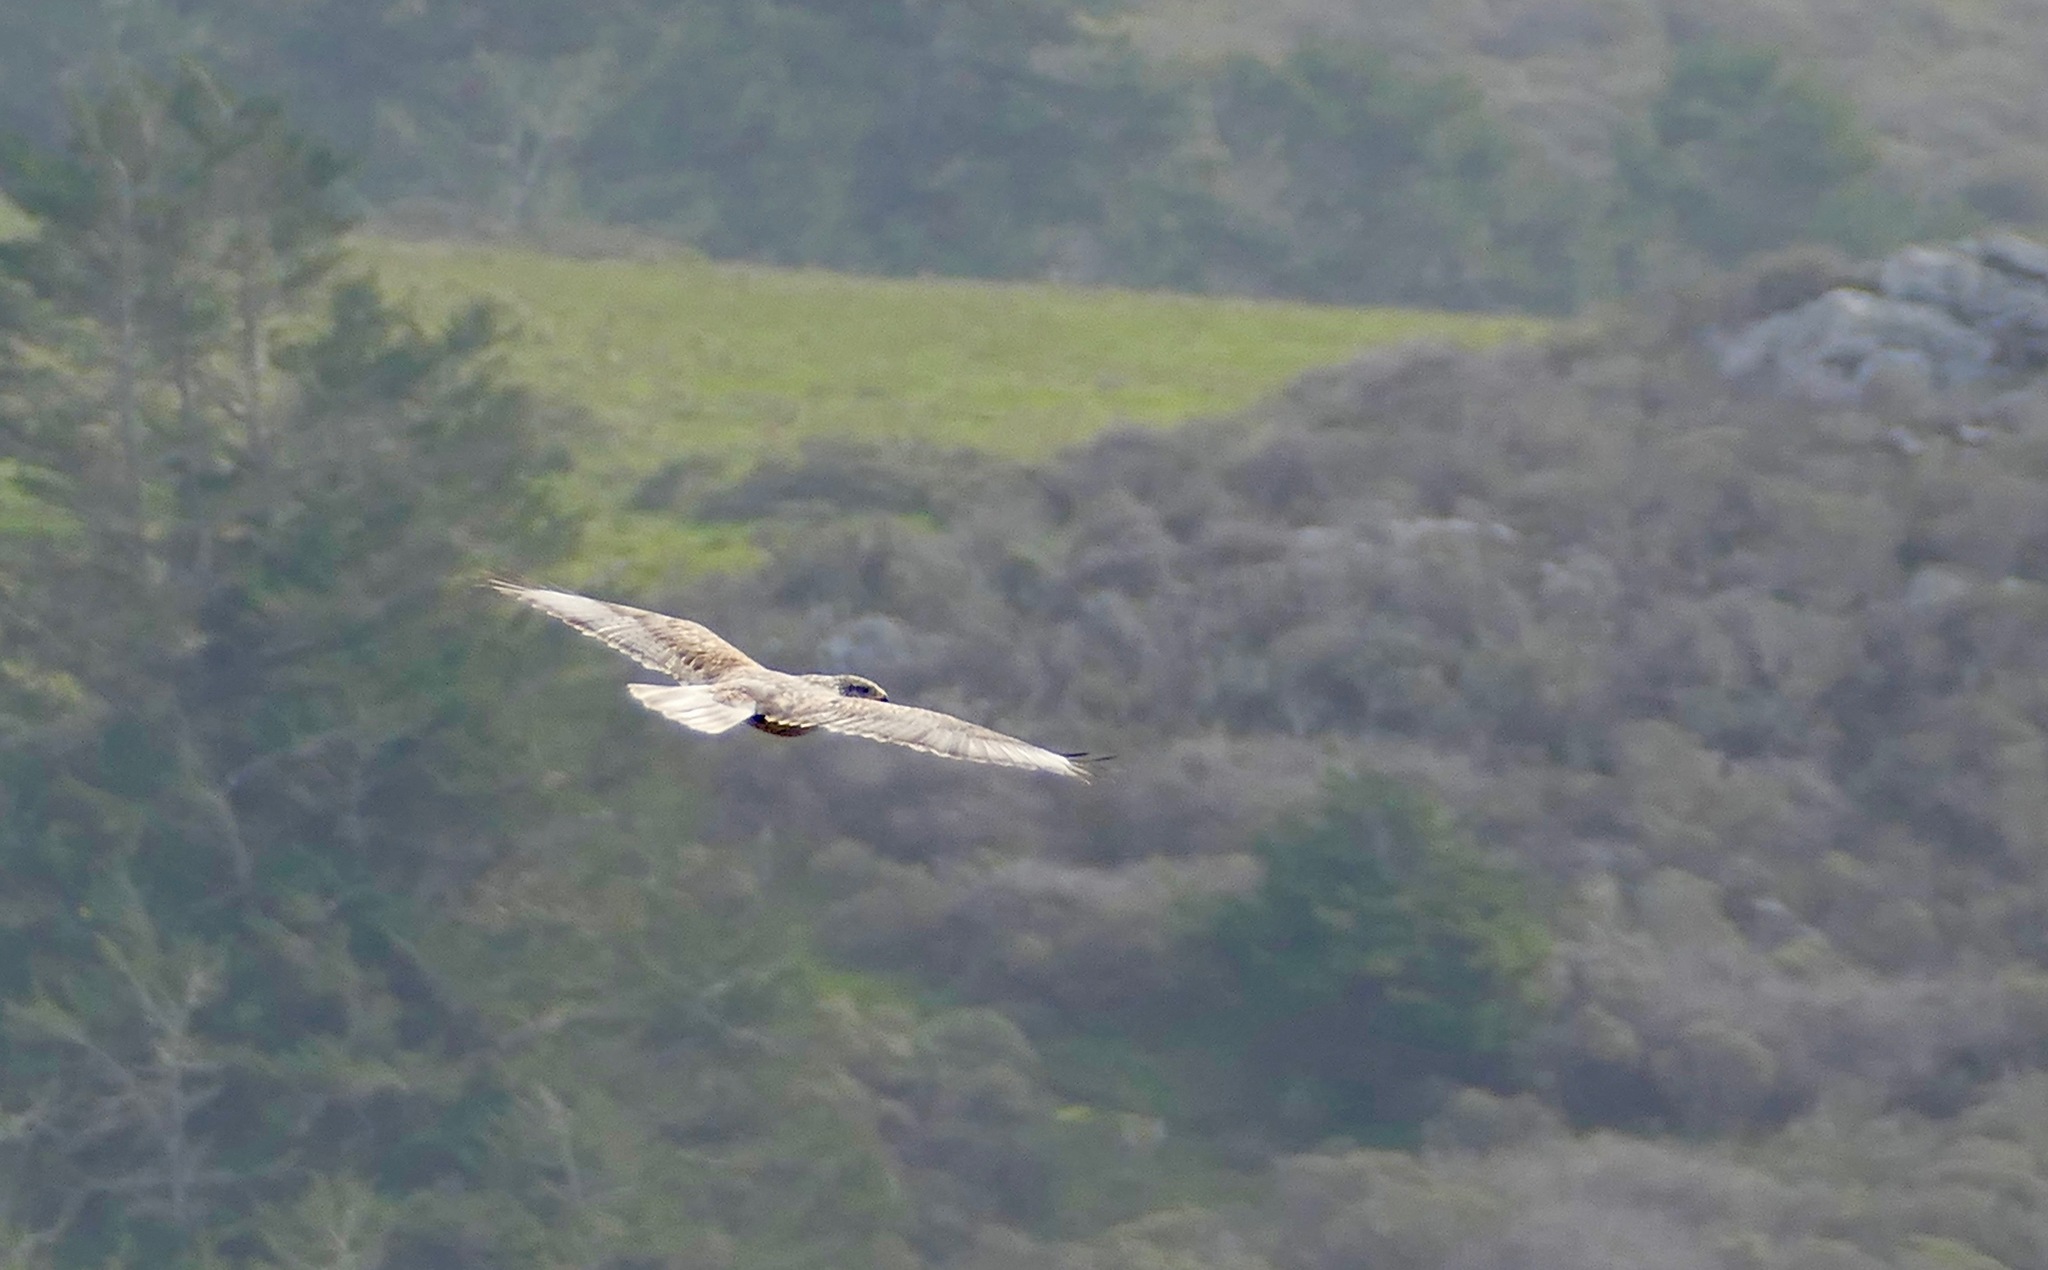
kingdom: Animalia
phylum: Chordata
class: Aves
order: Accipitriformes
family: Accipitridae
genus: Buteo
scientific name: Buteo regalis
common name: Ferruginous hawk
